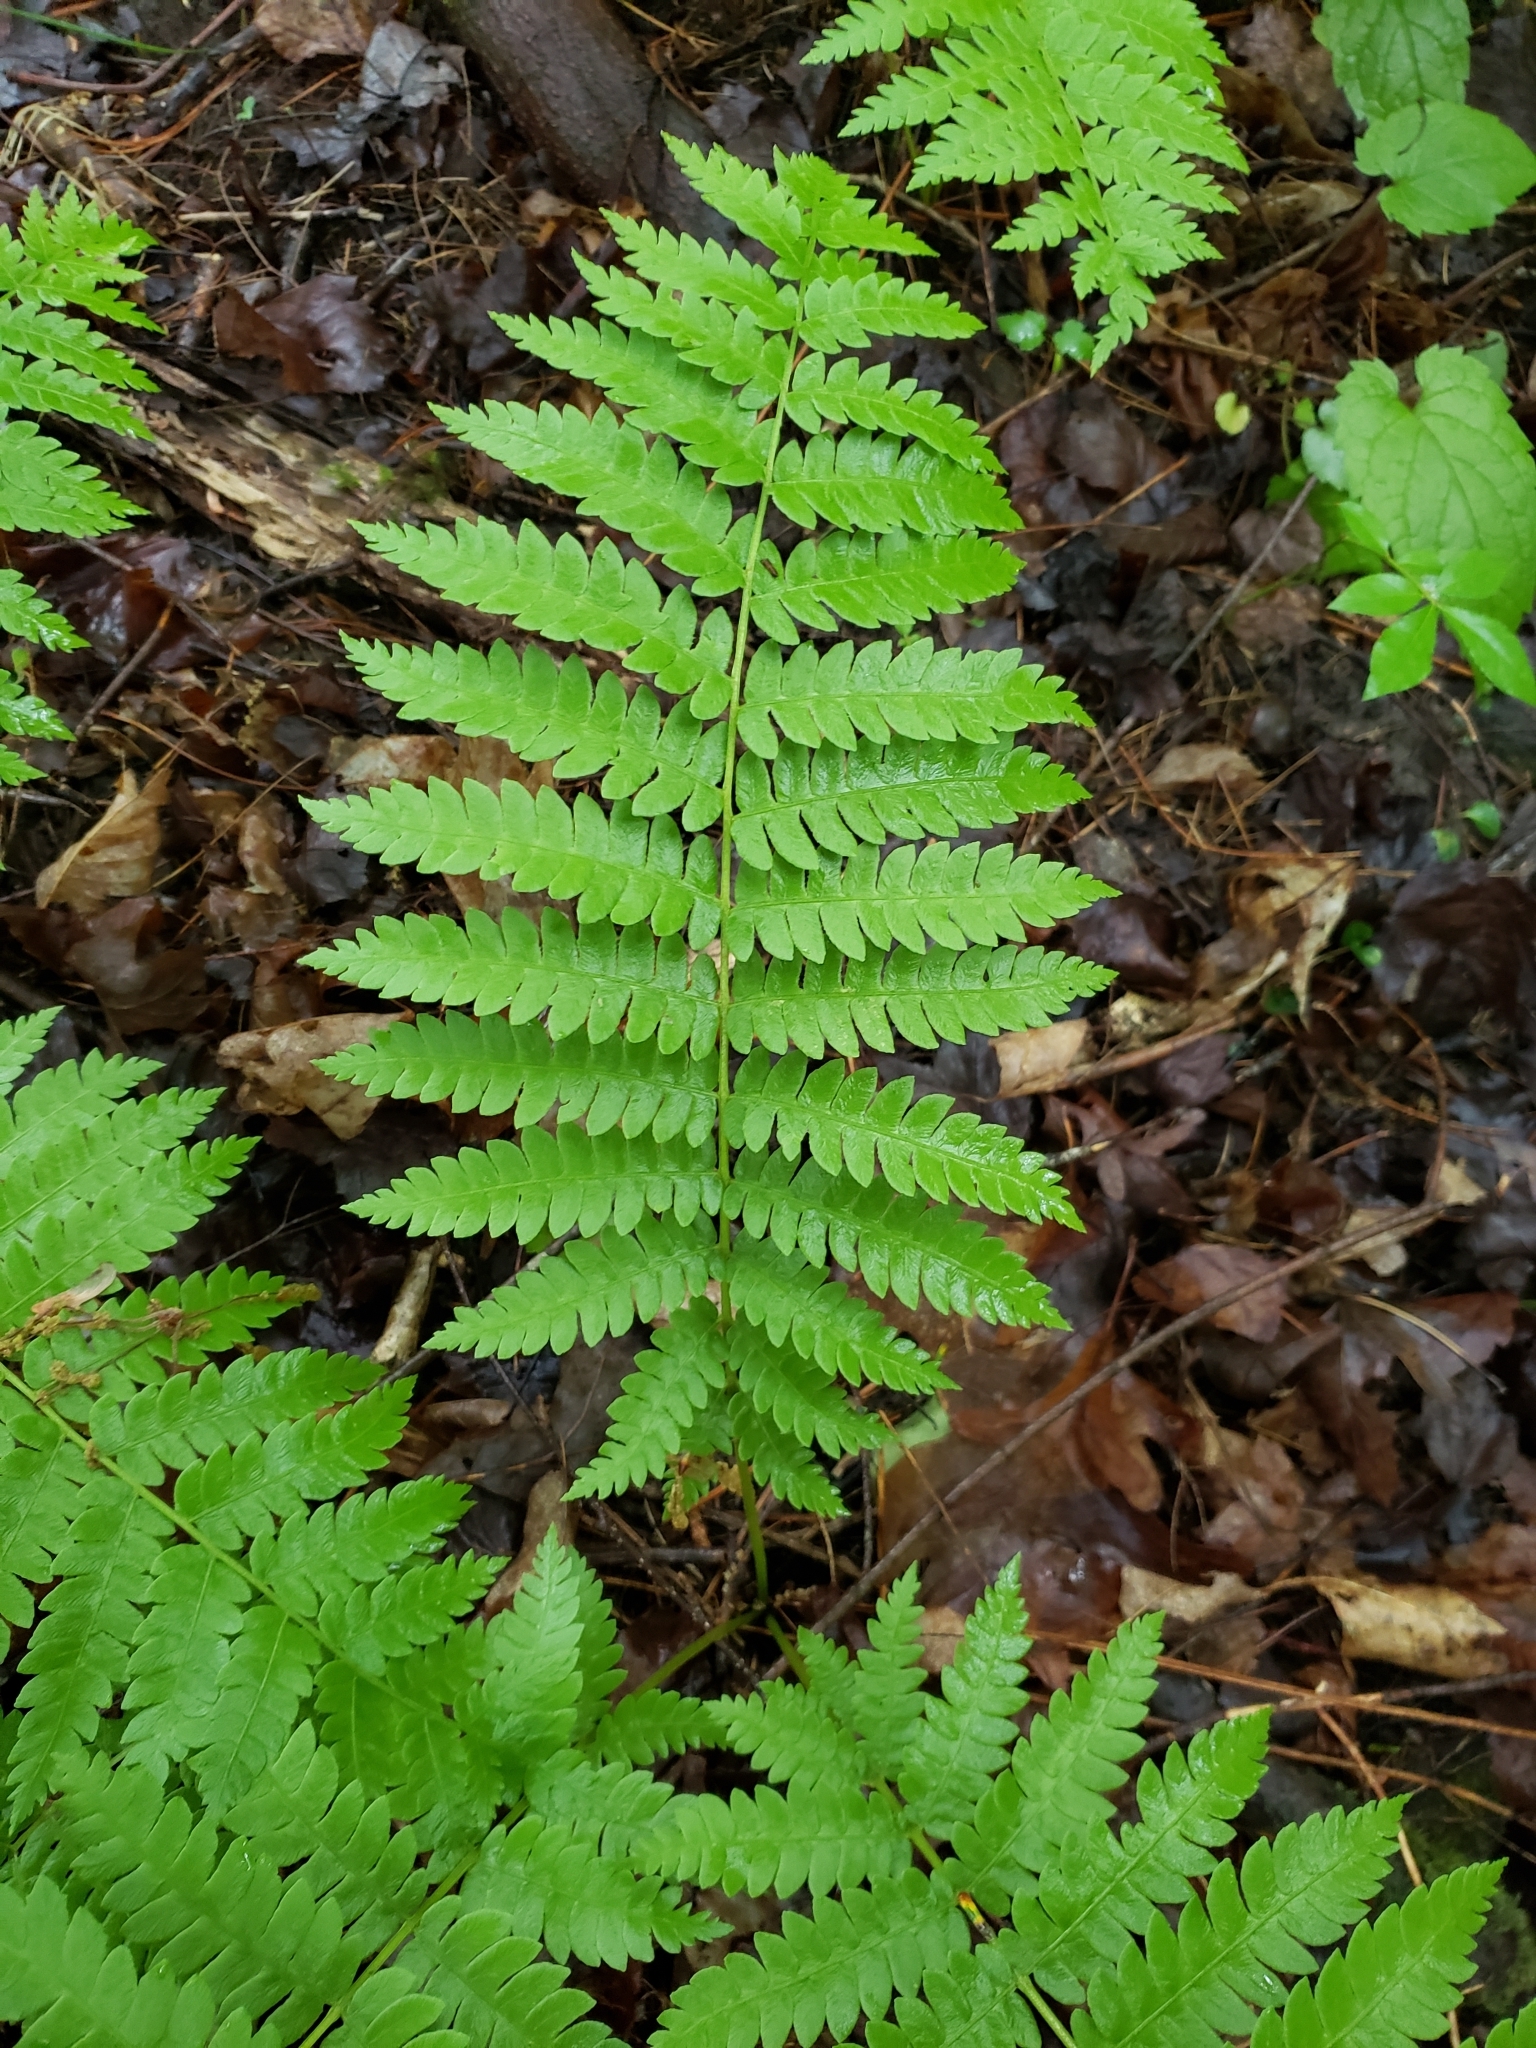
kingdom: Plantae
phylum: Tracheophyta
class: Polypodiopsida
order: Osmundales
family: Osmundaceae
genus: Osmundastrum
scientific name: Osmundastrum cinnamomeum
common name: Cinnamon fern
